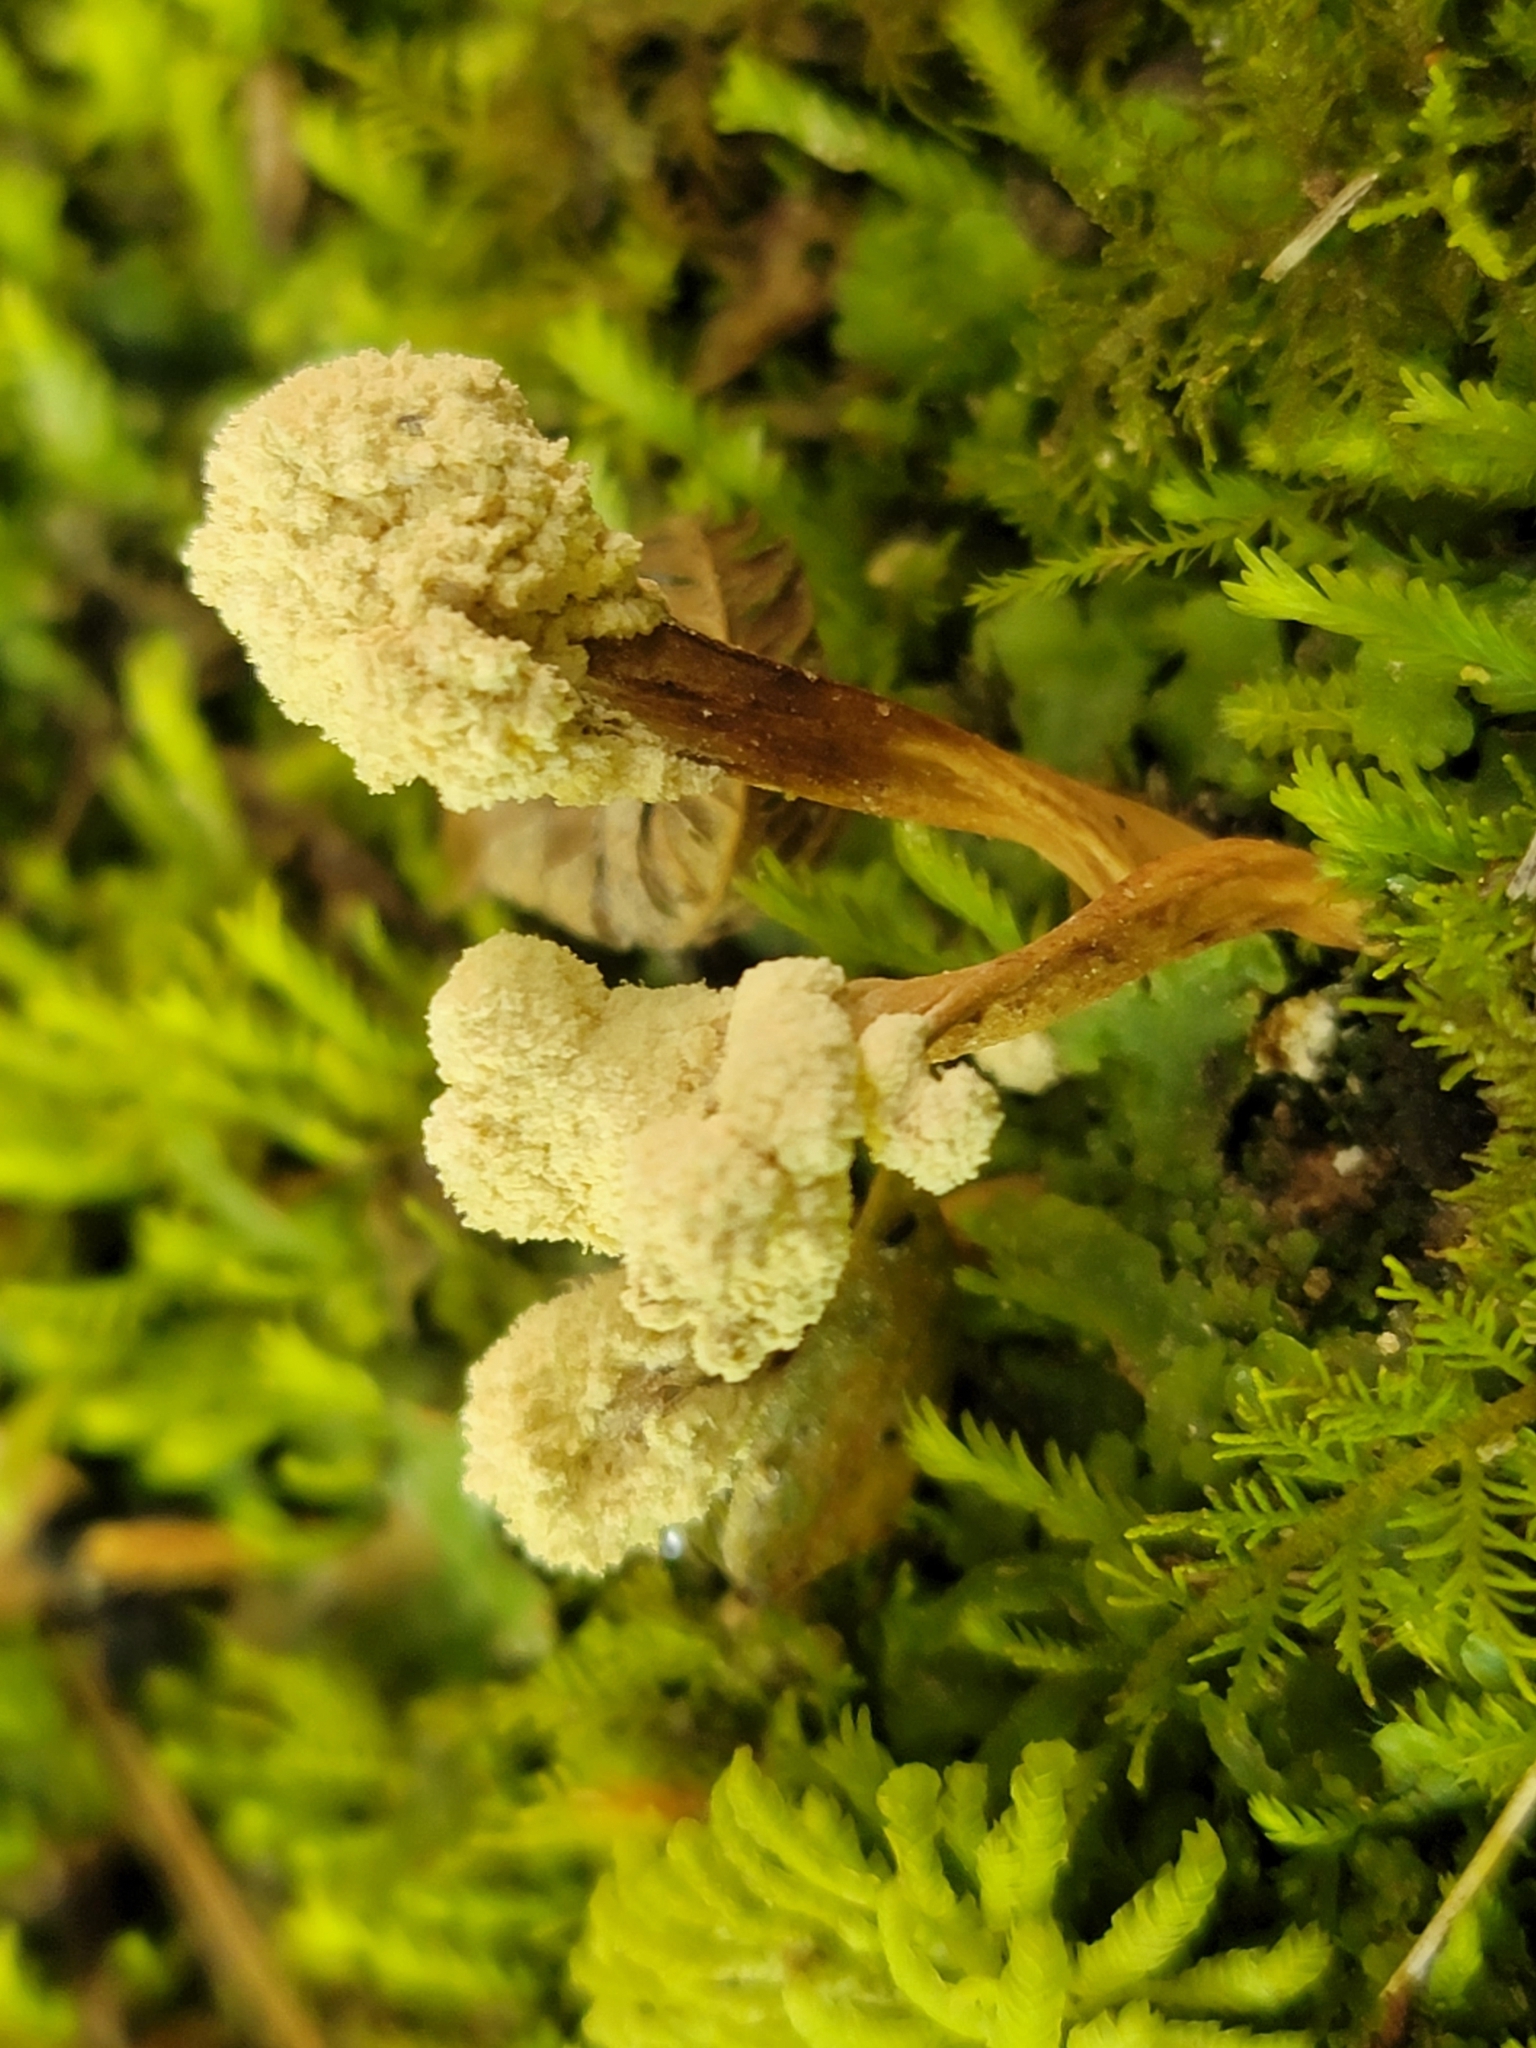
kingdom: Fungi
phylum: Ascomycota
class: Sordariomycetes
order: Hypocreales
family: Cordycipitaceae
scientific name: Cordycipitaceae
